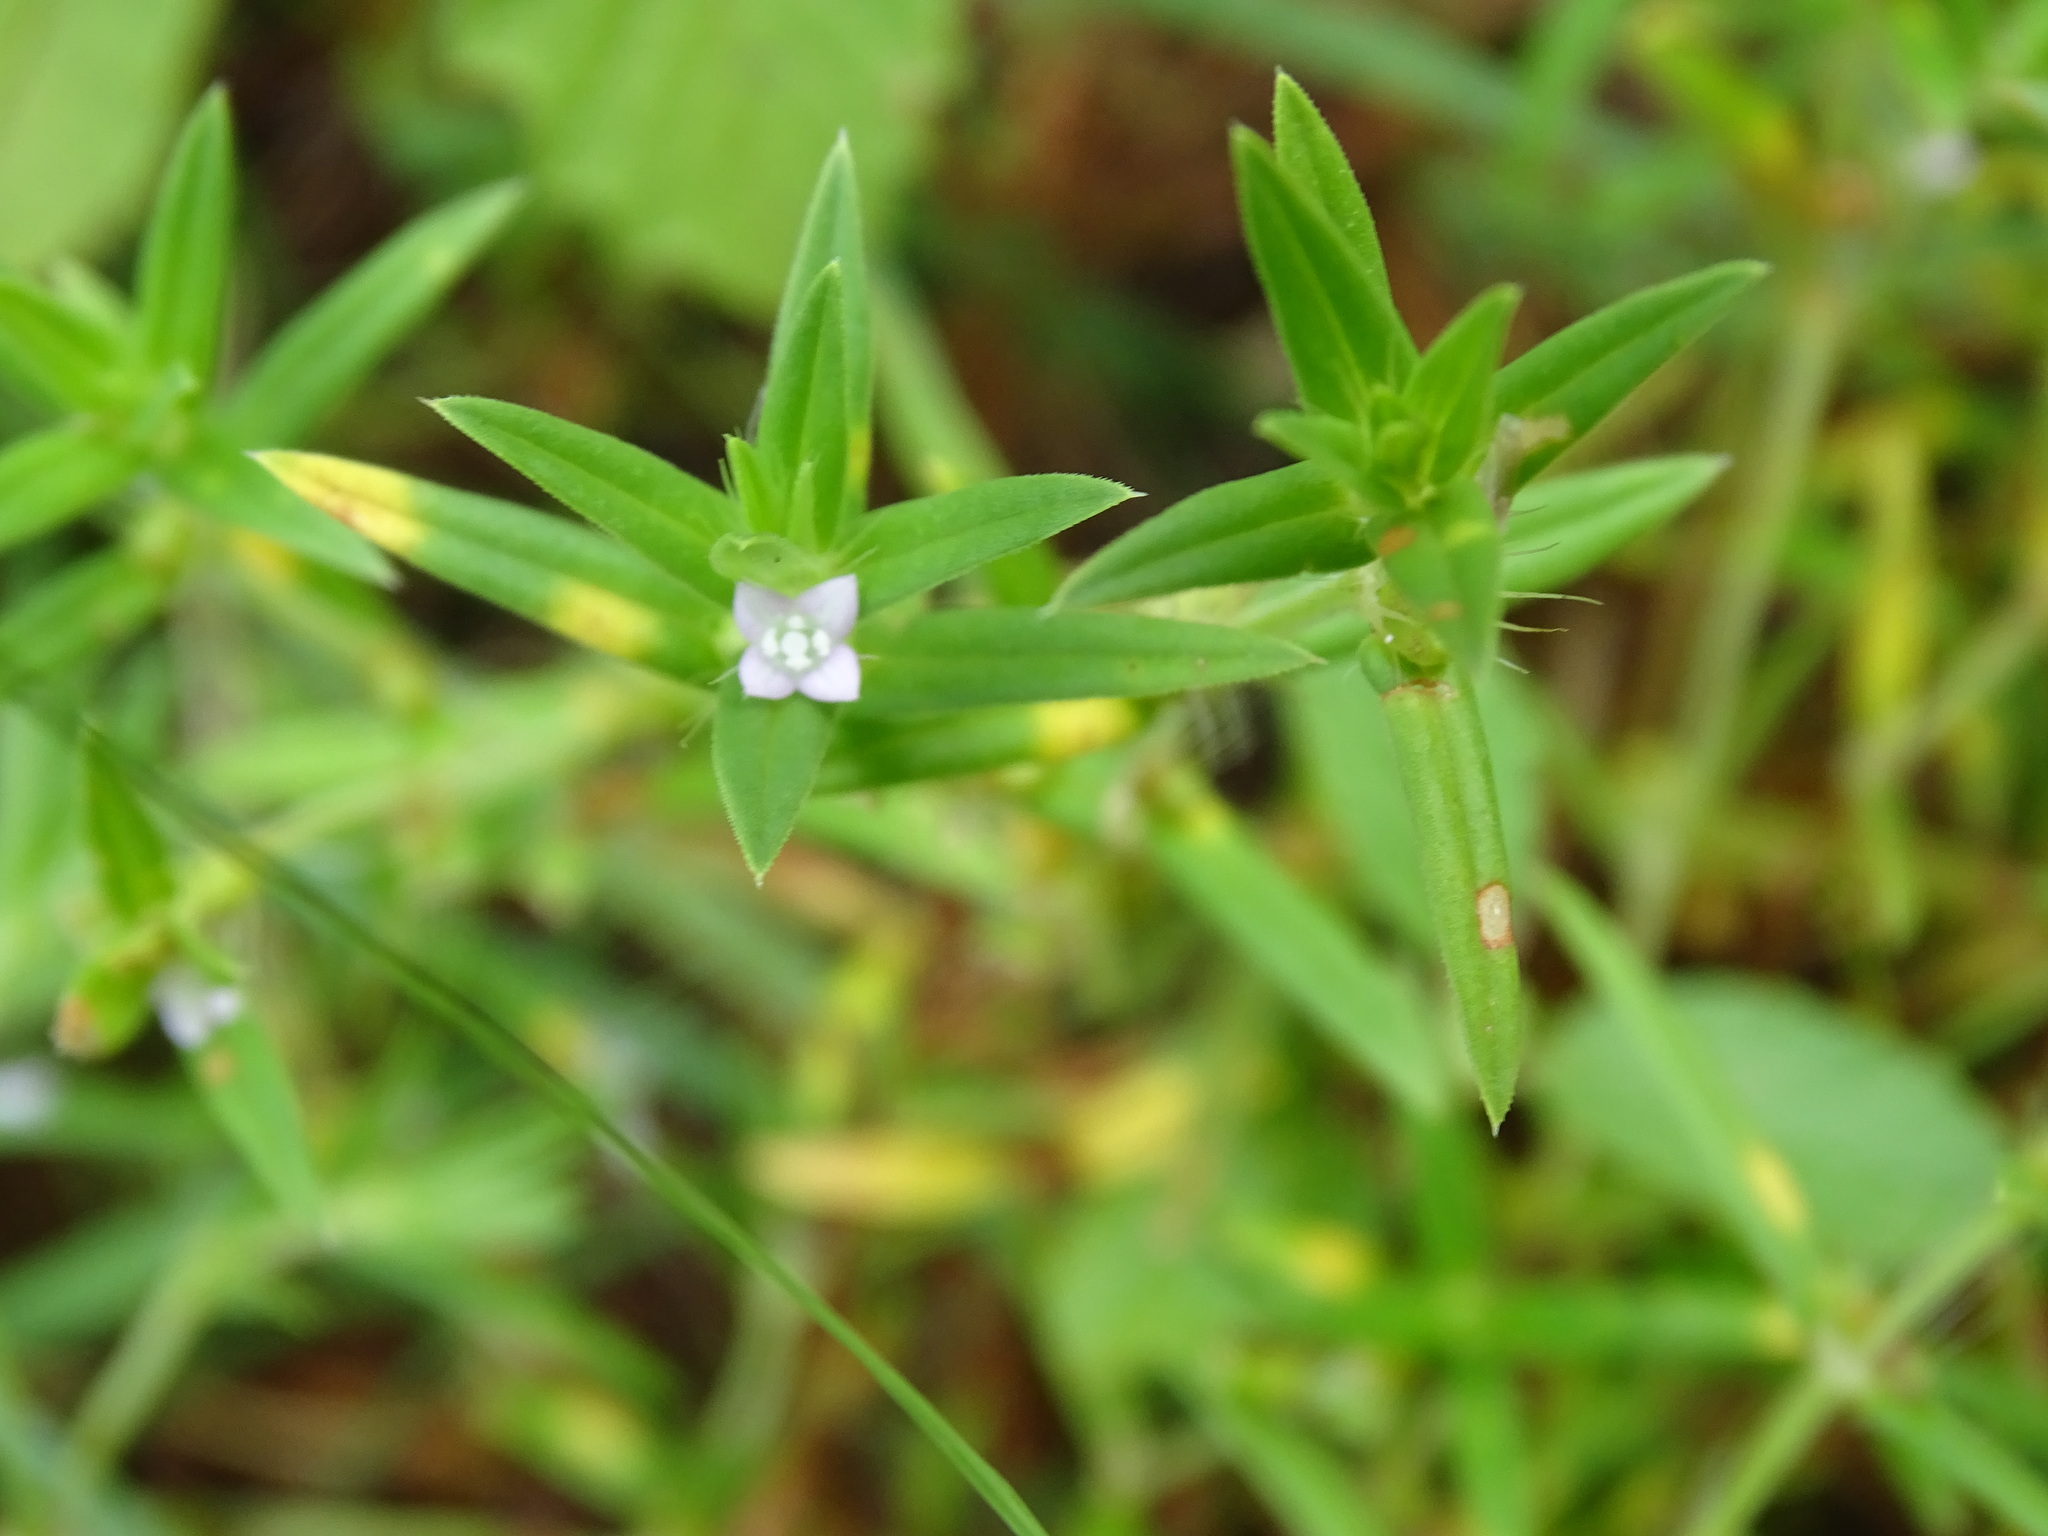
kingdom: Plantae
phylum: Tracheophyta
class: Magnoliopsida
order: Gentianales
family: Rubiaceae
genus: Hexasepalum
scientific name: Hexasepalum teres
